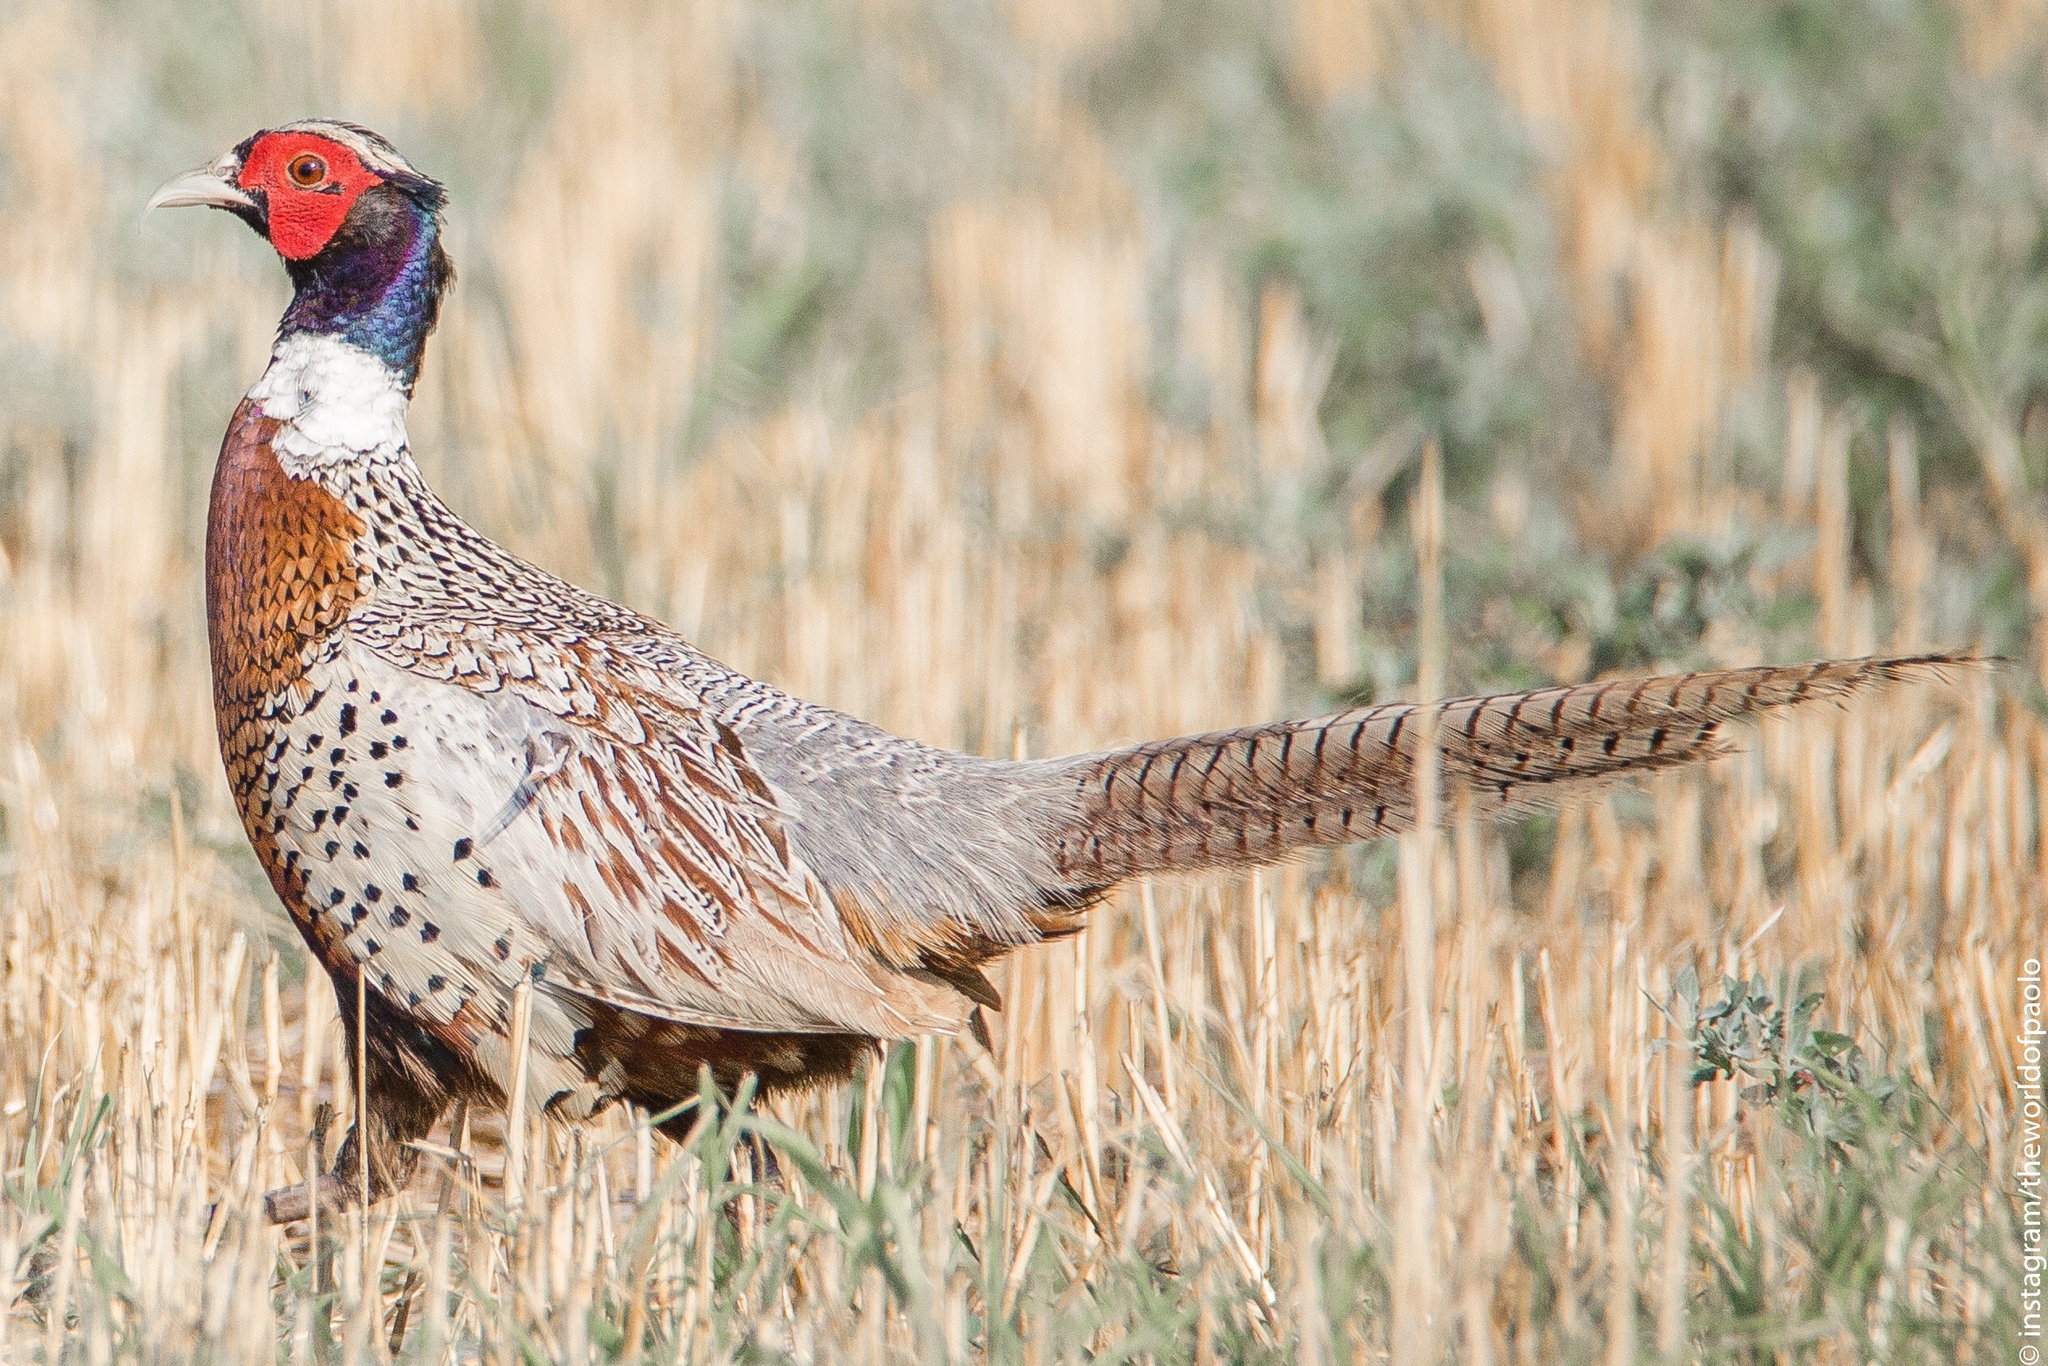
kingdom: Animalia
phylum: Chordata
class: Aves
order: Galliformes
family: Phasianidae
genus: Phasianus
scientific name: Phasianus colchicus
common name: Common pheasant
